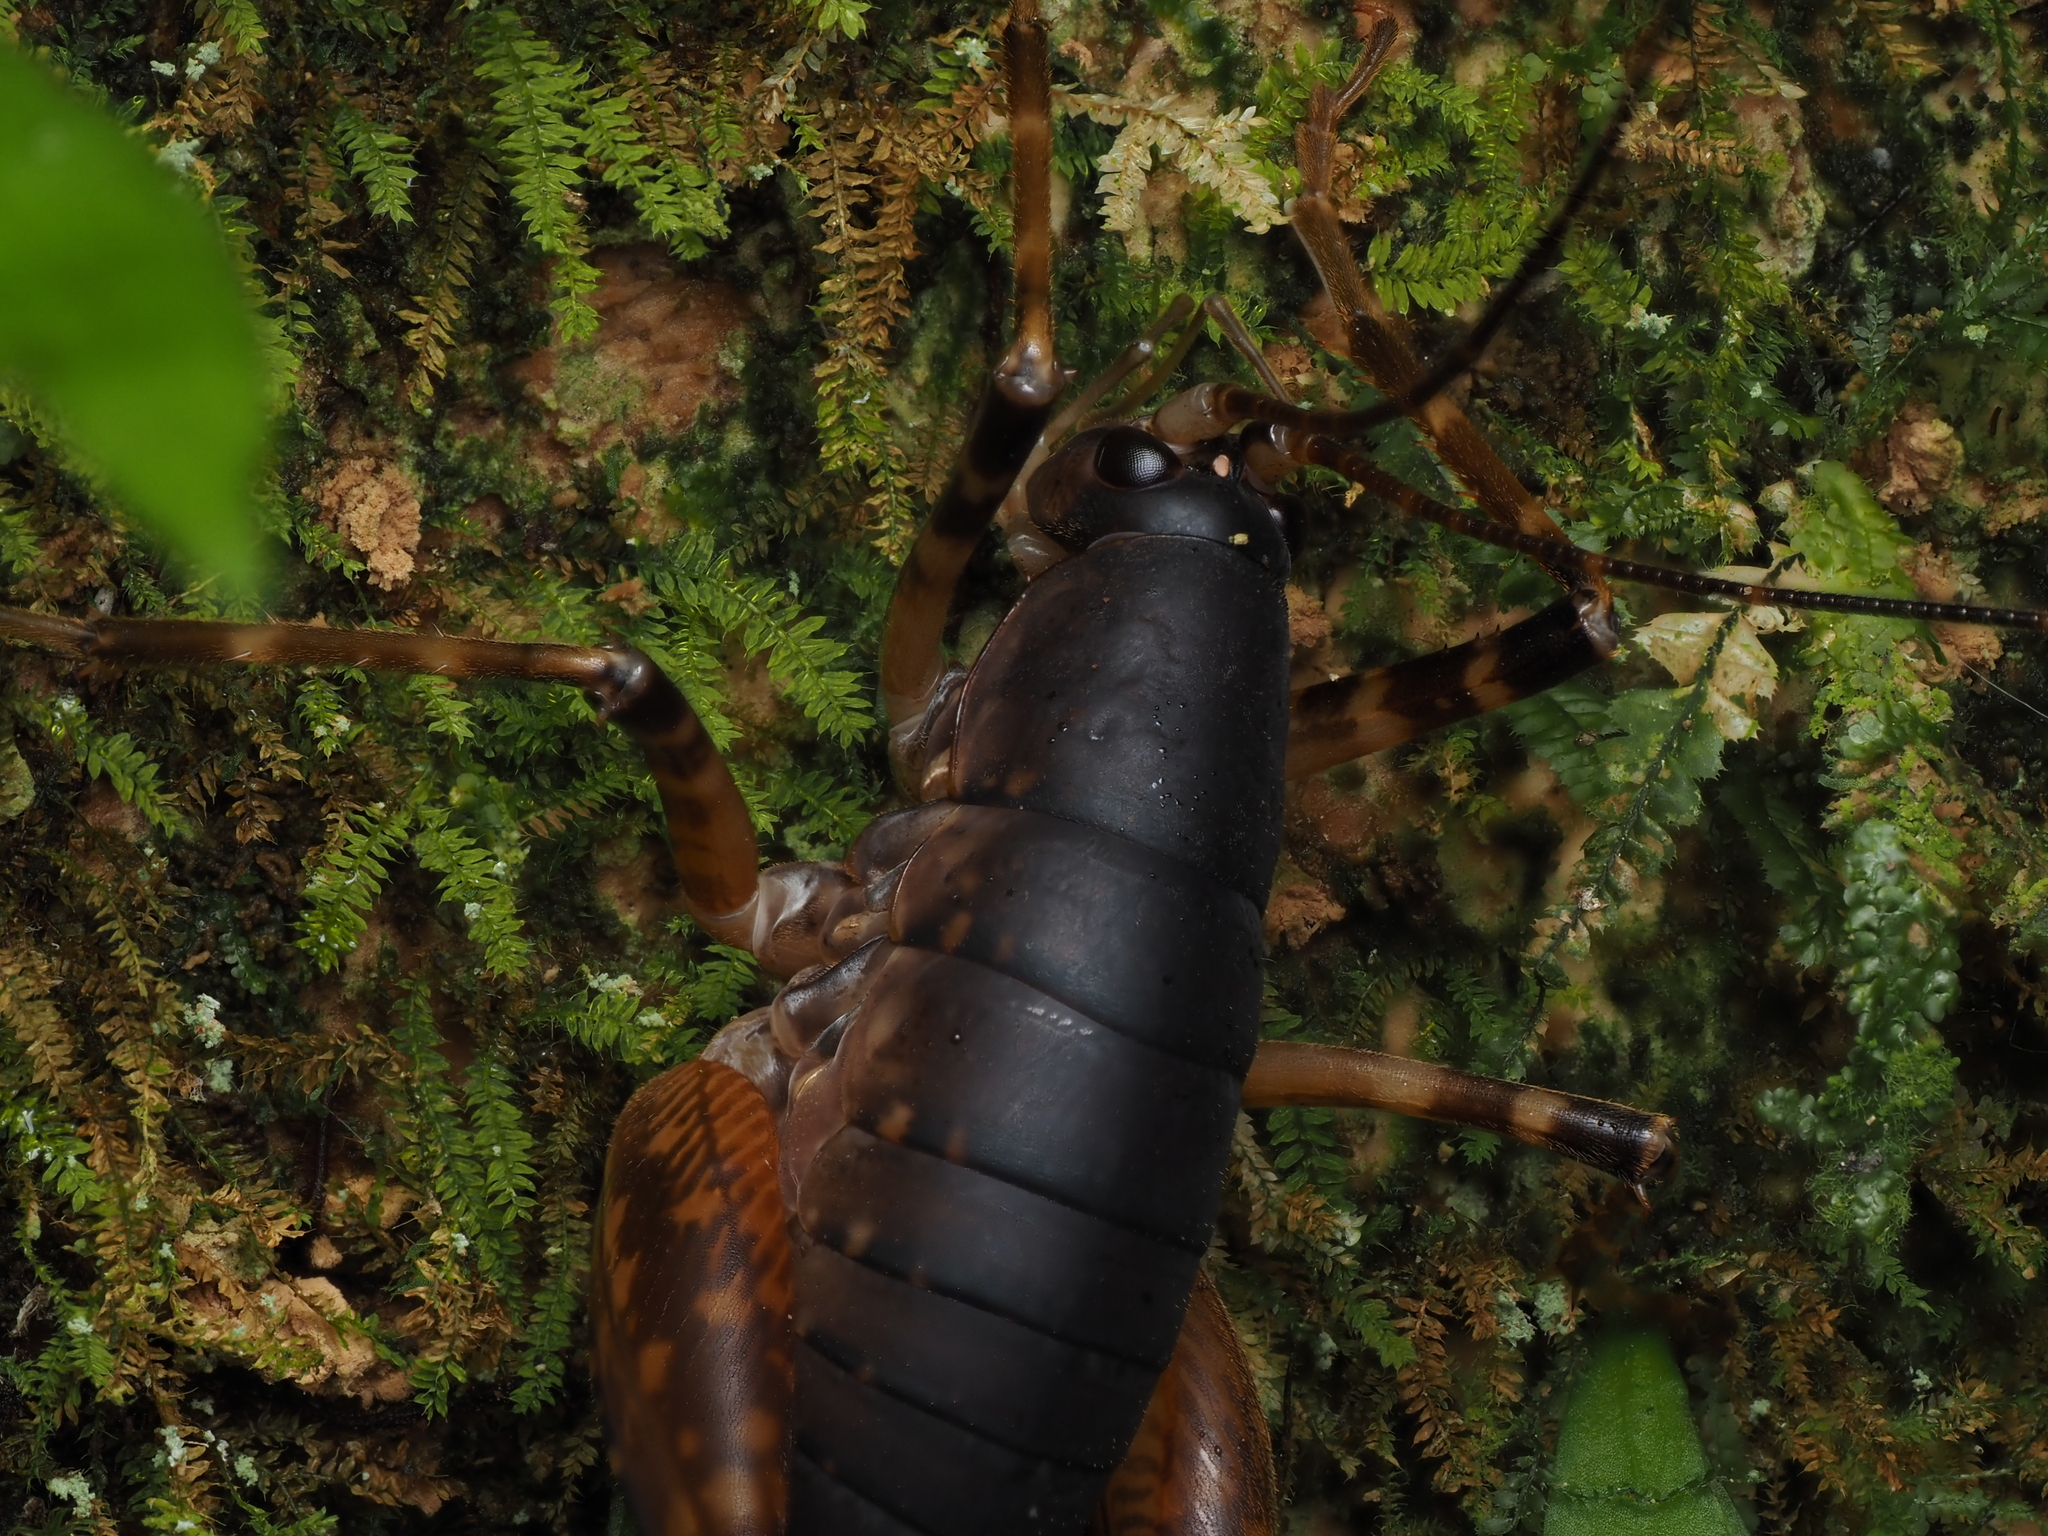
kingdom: Animalia
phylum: Arthropoda
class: Insecta
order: Orthoptera
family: Rhaphidophoridae
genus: Pachyrhamma
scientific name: Pachyrhamma longicauda
